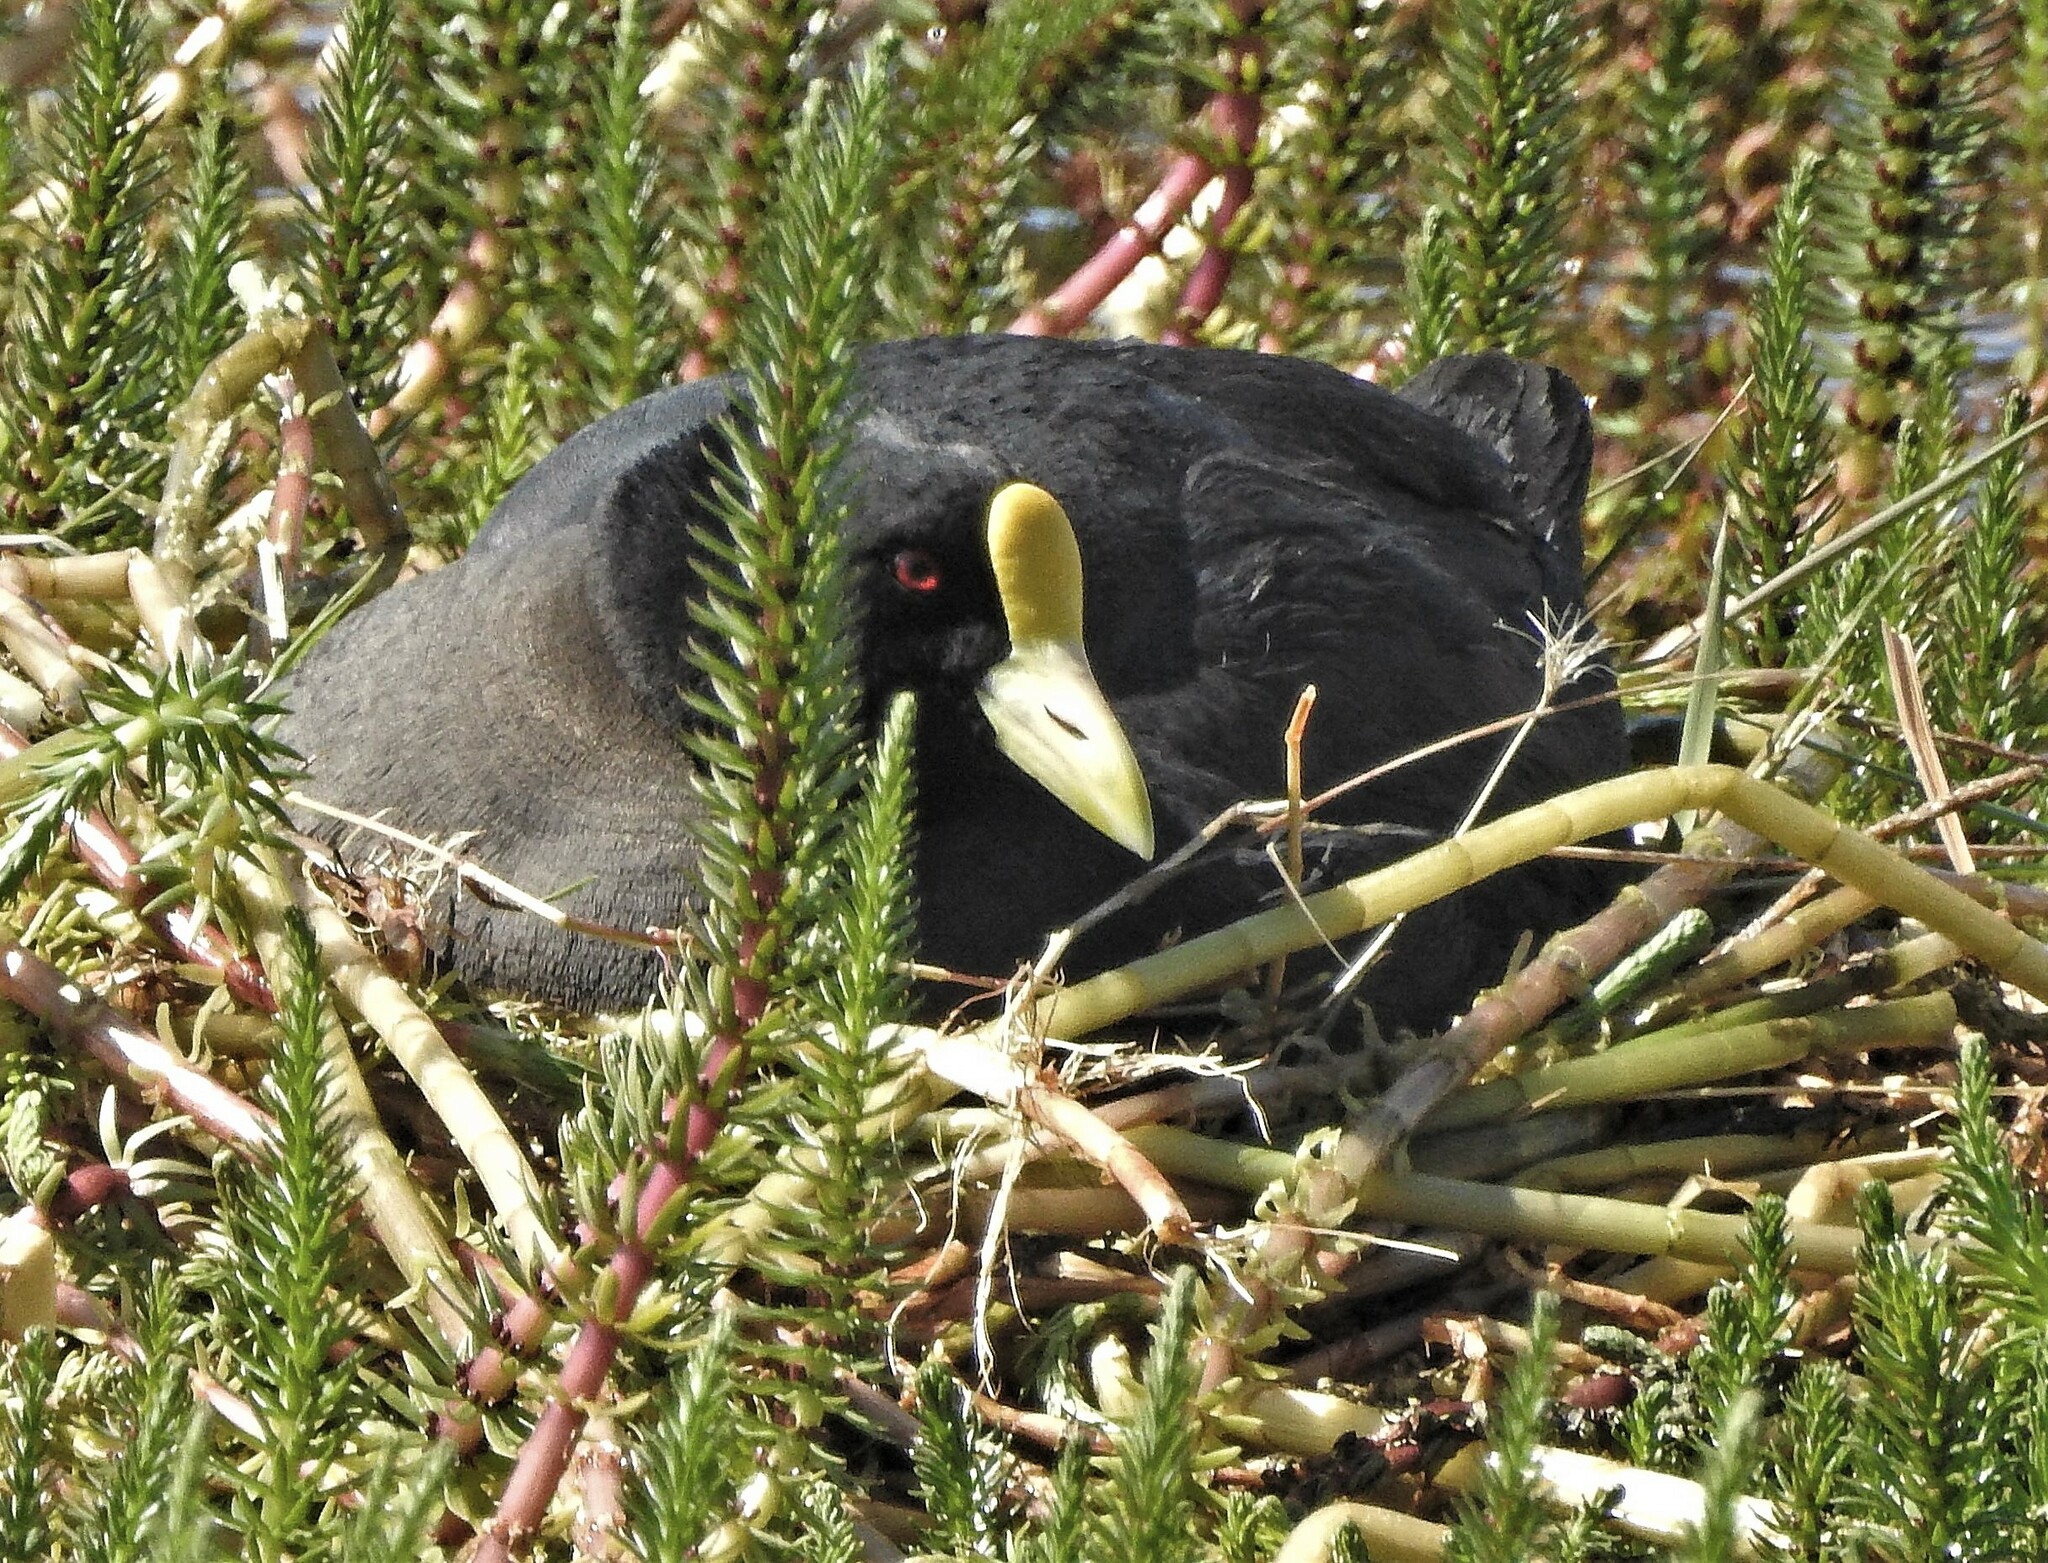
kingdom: Animalia
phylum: Chordata
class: Aves
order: Gruiformes
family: Rallidae
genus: Fulica
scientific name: Fulica leucoptera
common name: White-winged coot
